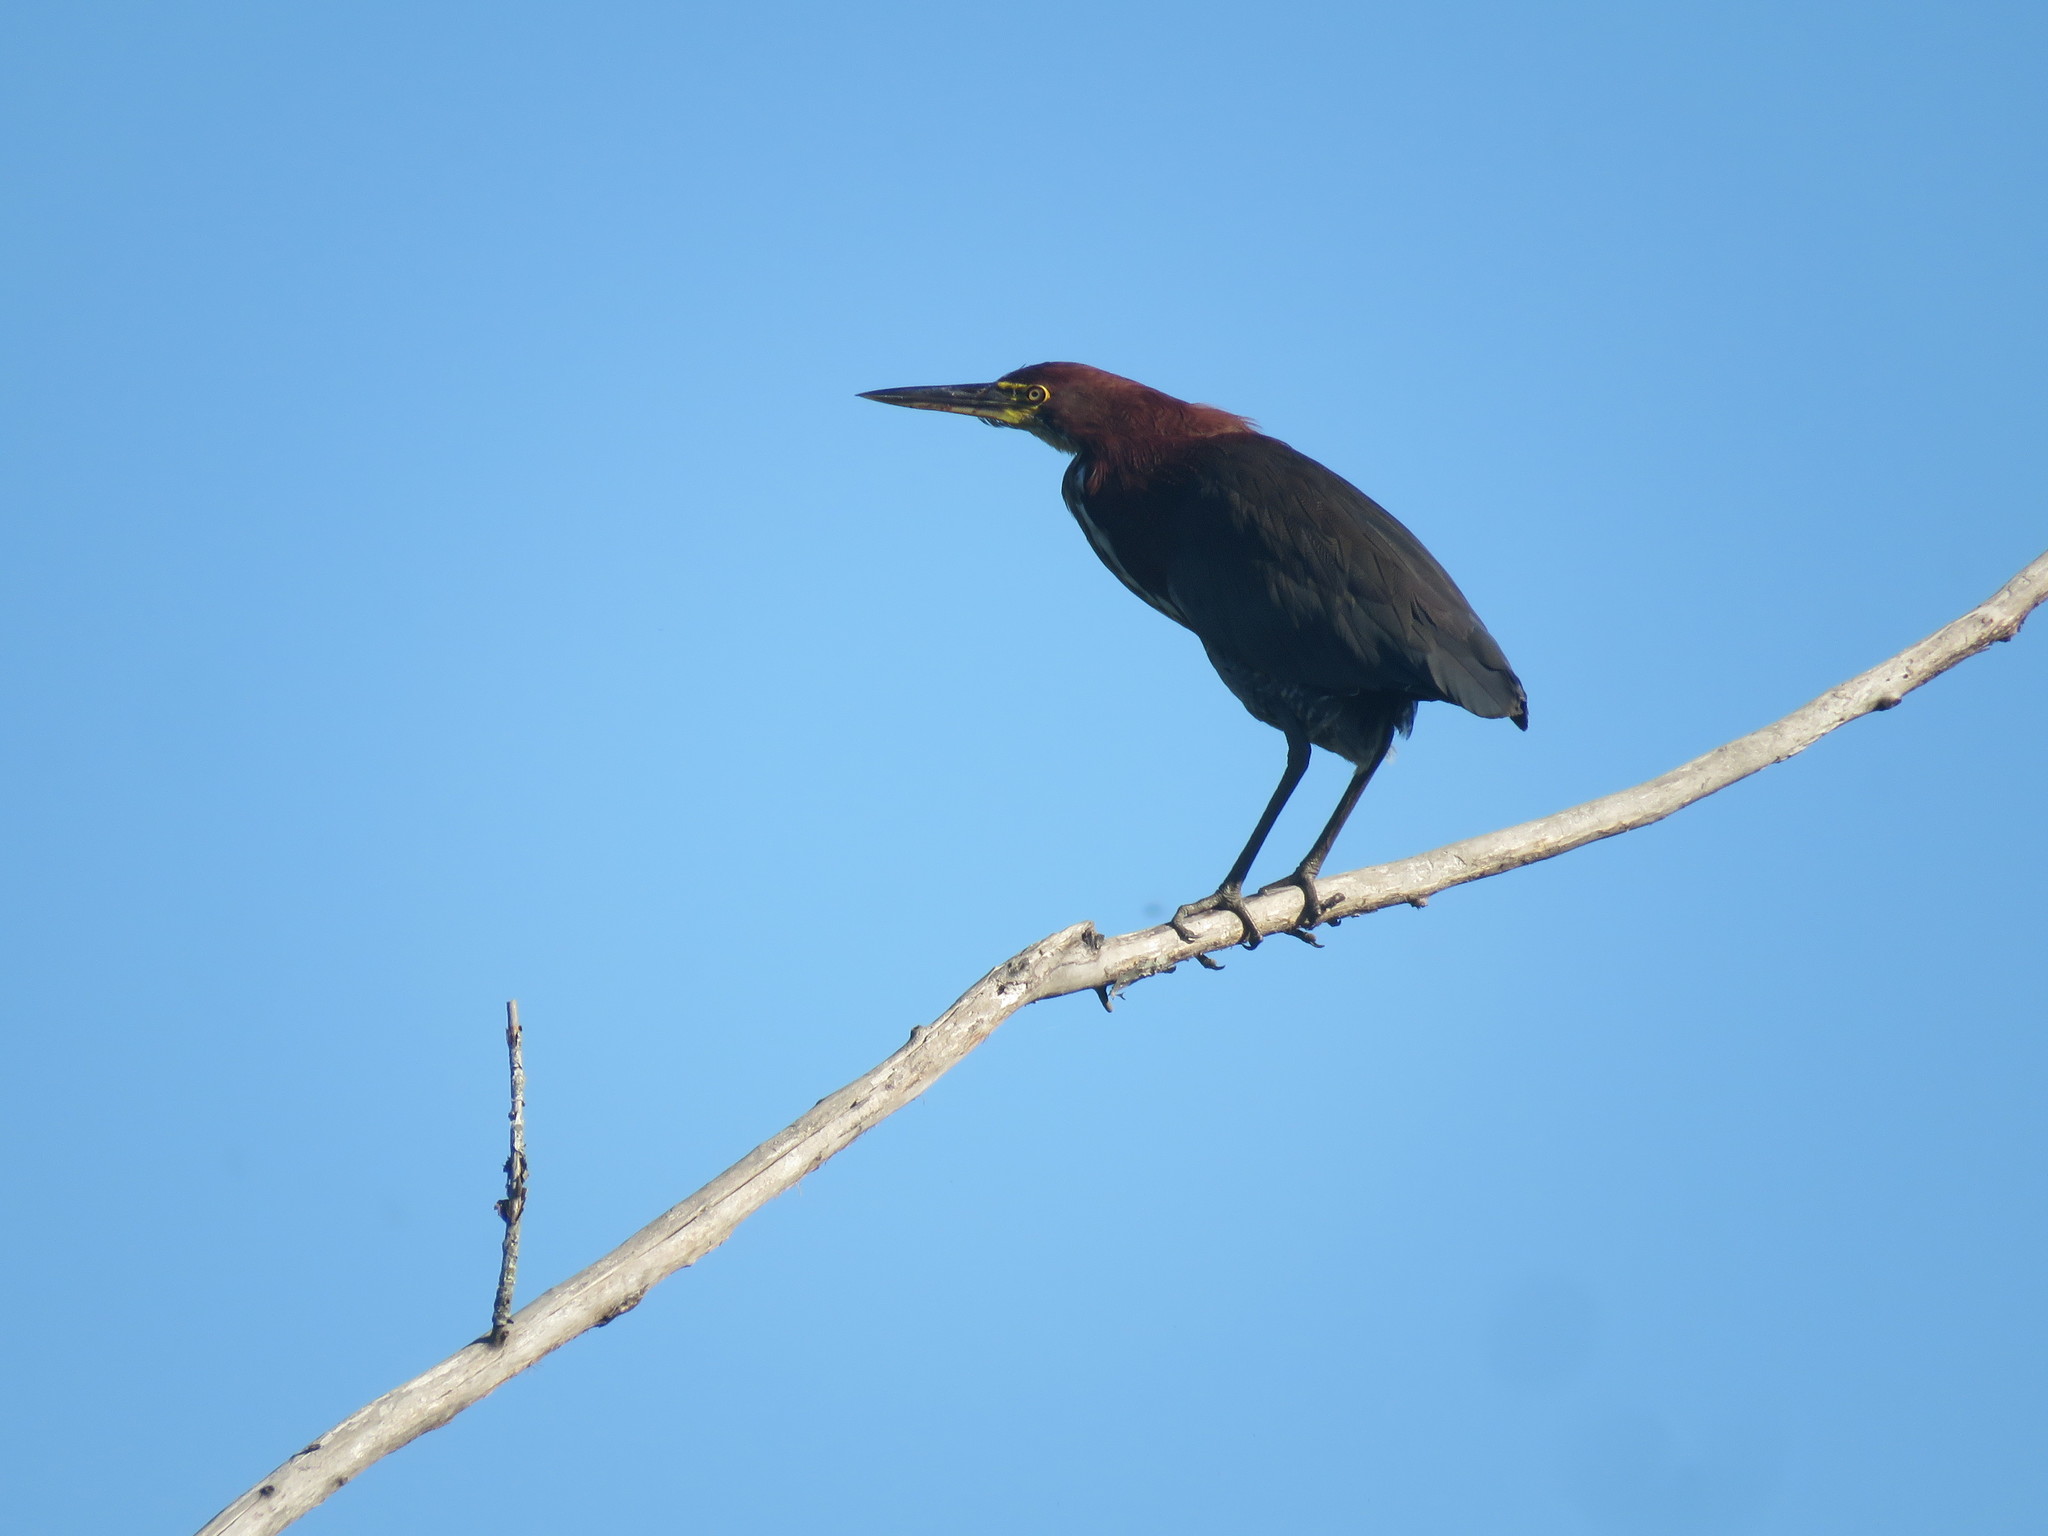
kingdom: Animalia
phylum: Chordata
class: Aves
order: Pelecaniformes
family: Ardeidae
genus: Tigrisoma
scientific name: Tigrisoma lineatum
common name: Rufescent tiger-heron
